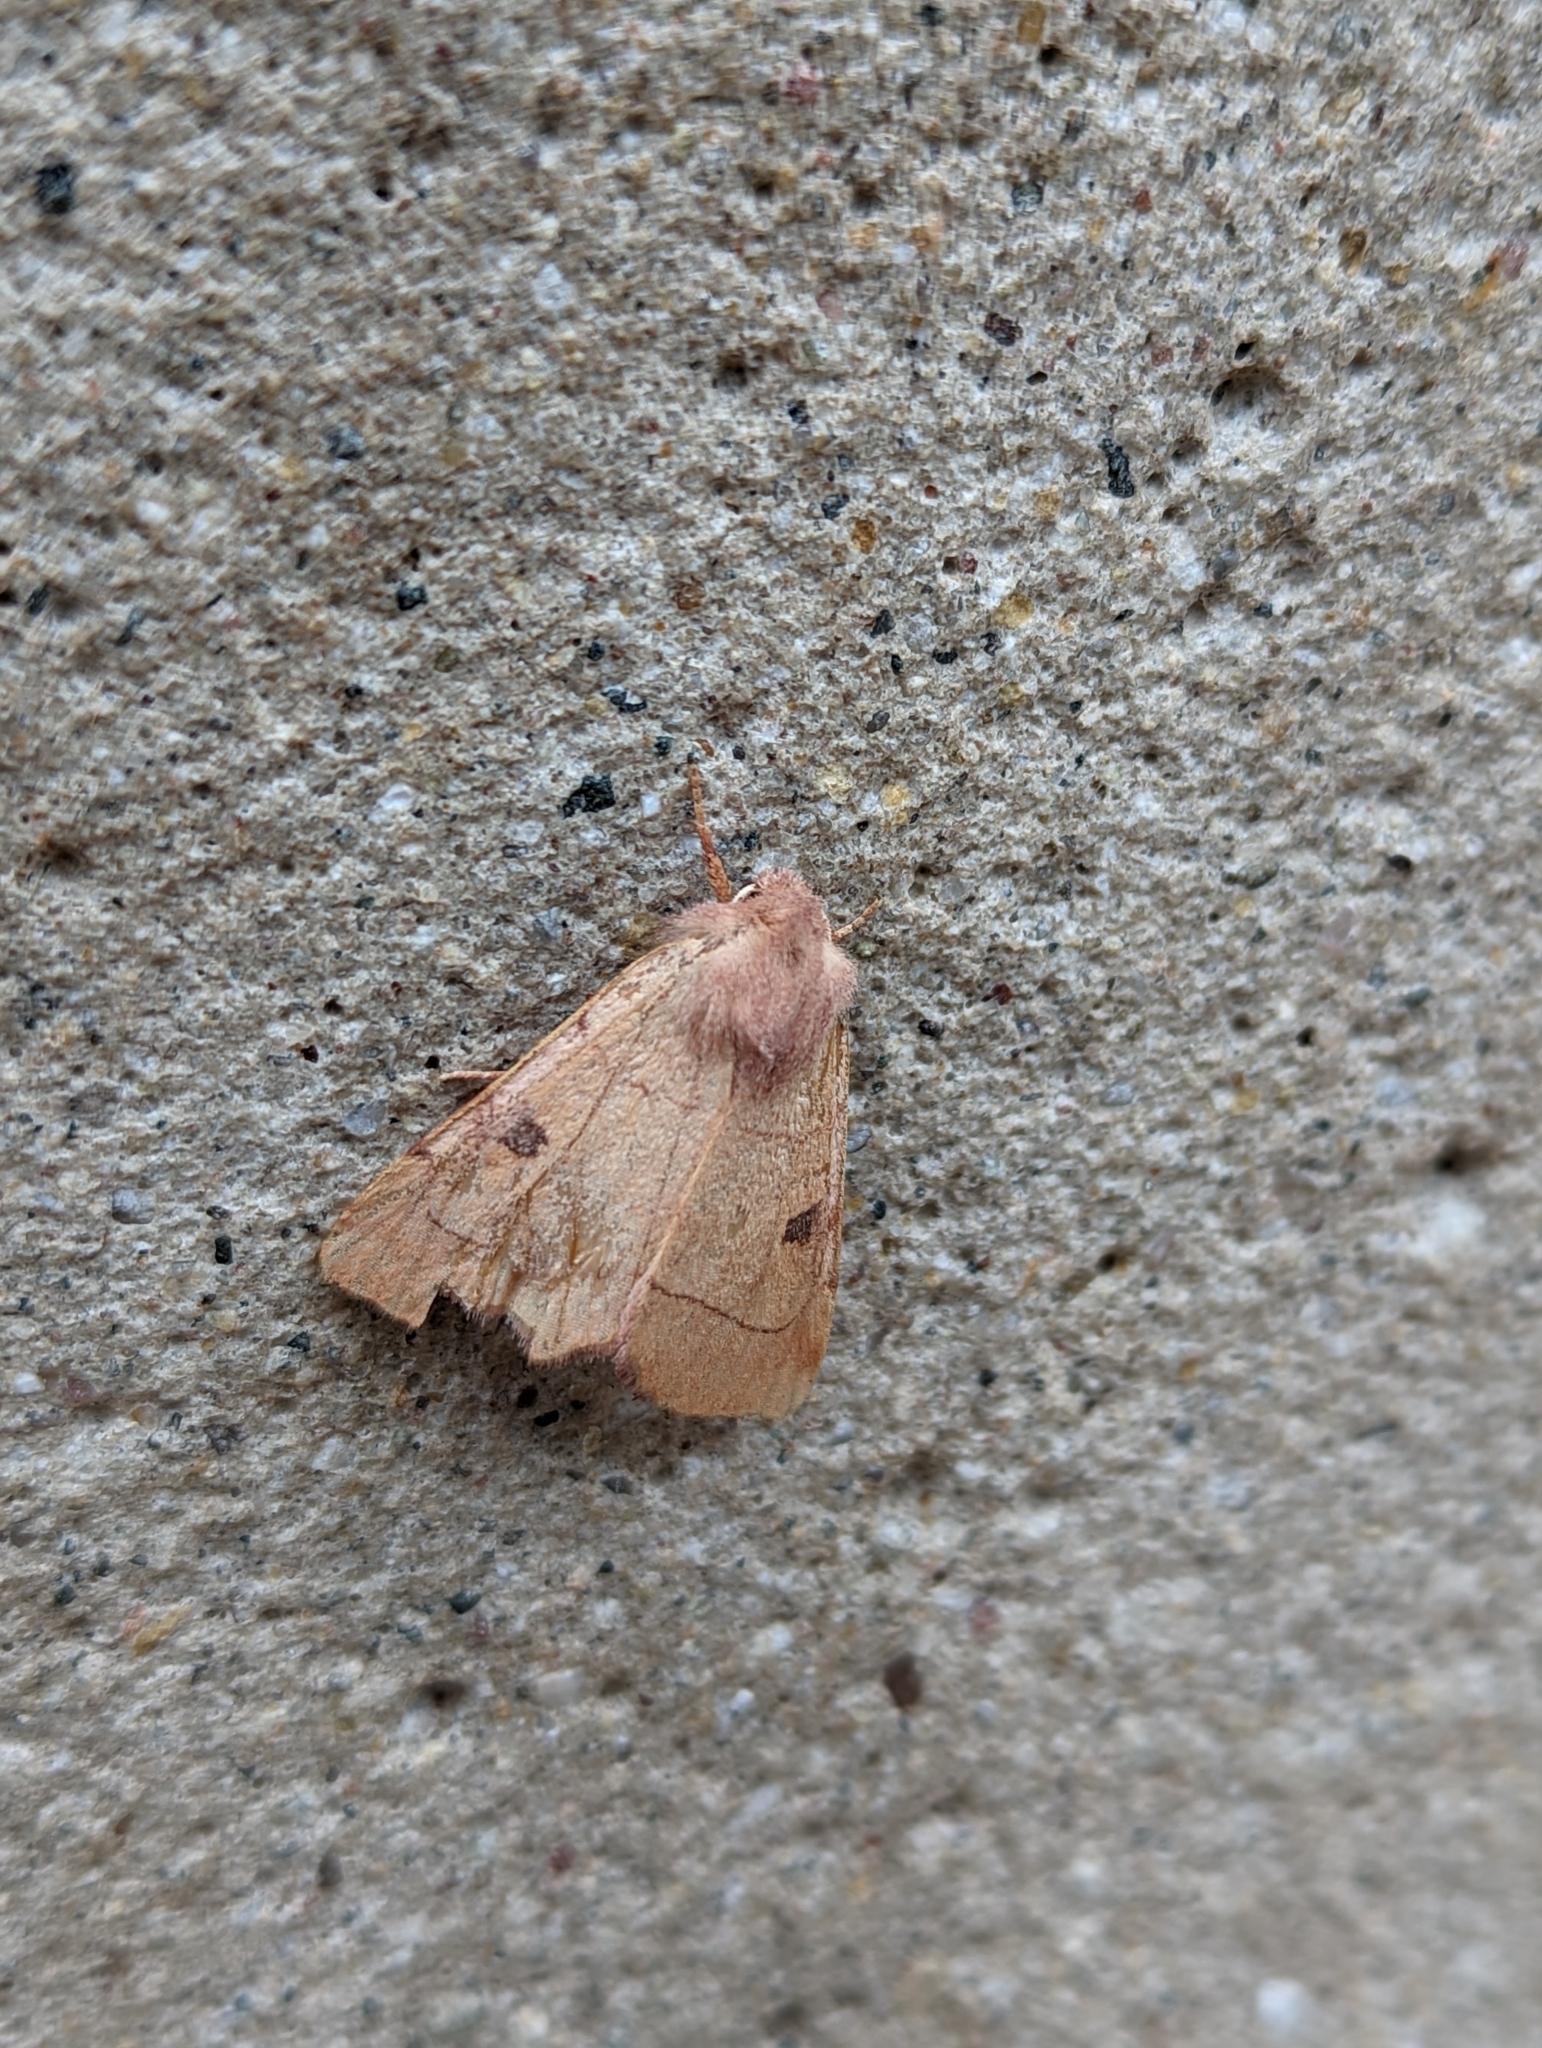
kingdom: Animalia
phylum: Arthropoda
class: Insecta
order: Lepidoptera
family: Noctuidae
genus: Choephora
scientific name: Choephora fungorum
